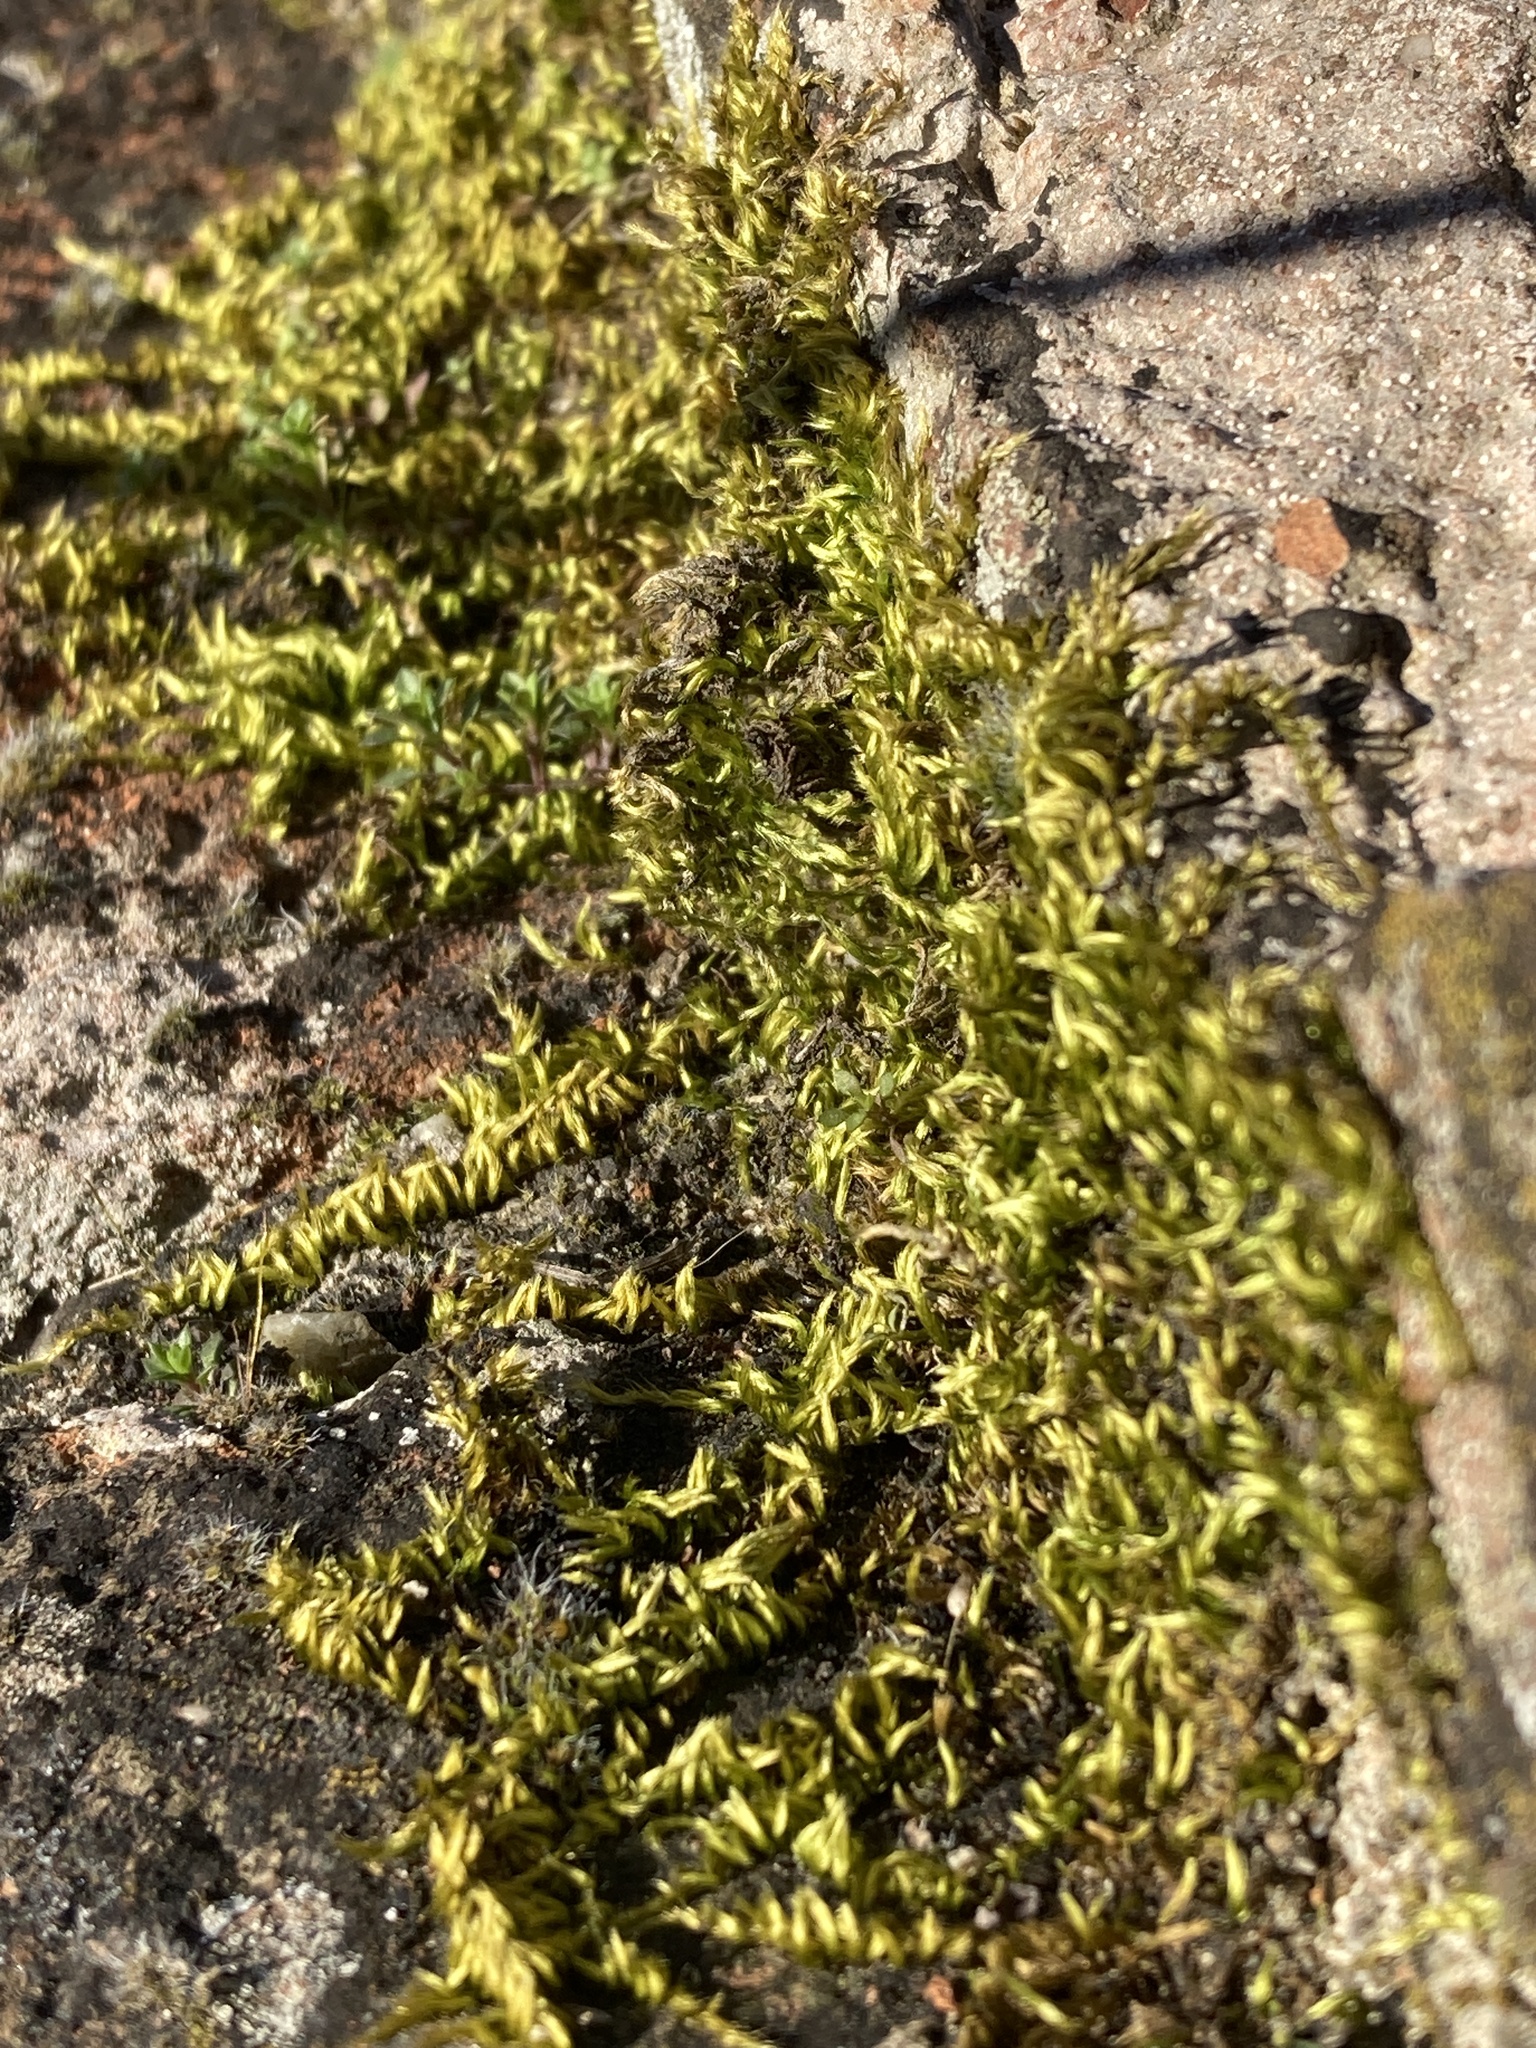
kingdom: Plantae
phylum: Bryophyta
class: Bryopsida
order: Hypnales
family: Brachytheciaceae
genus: Homalothecium
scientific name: Homalothecium sericeum
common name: Silky wall feather-moss
